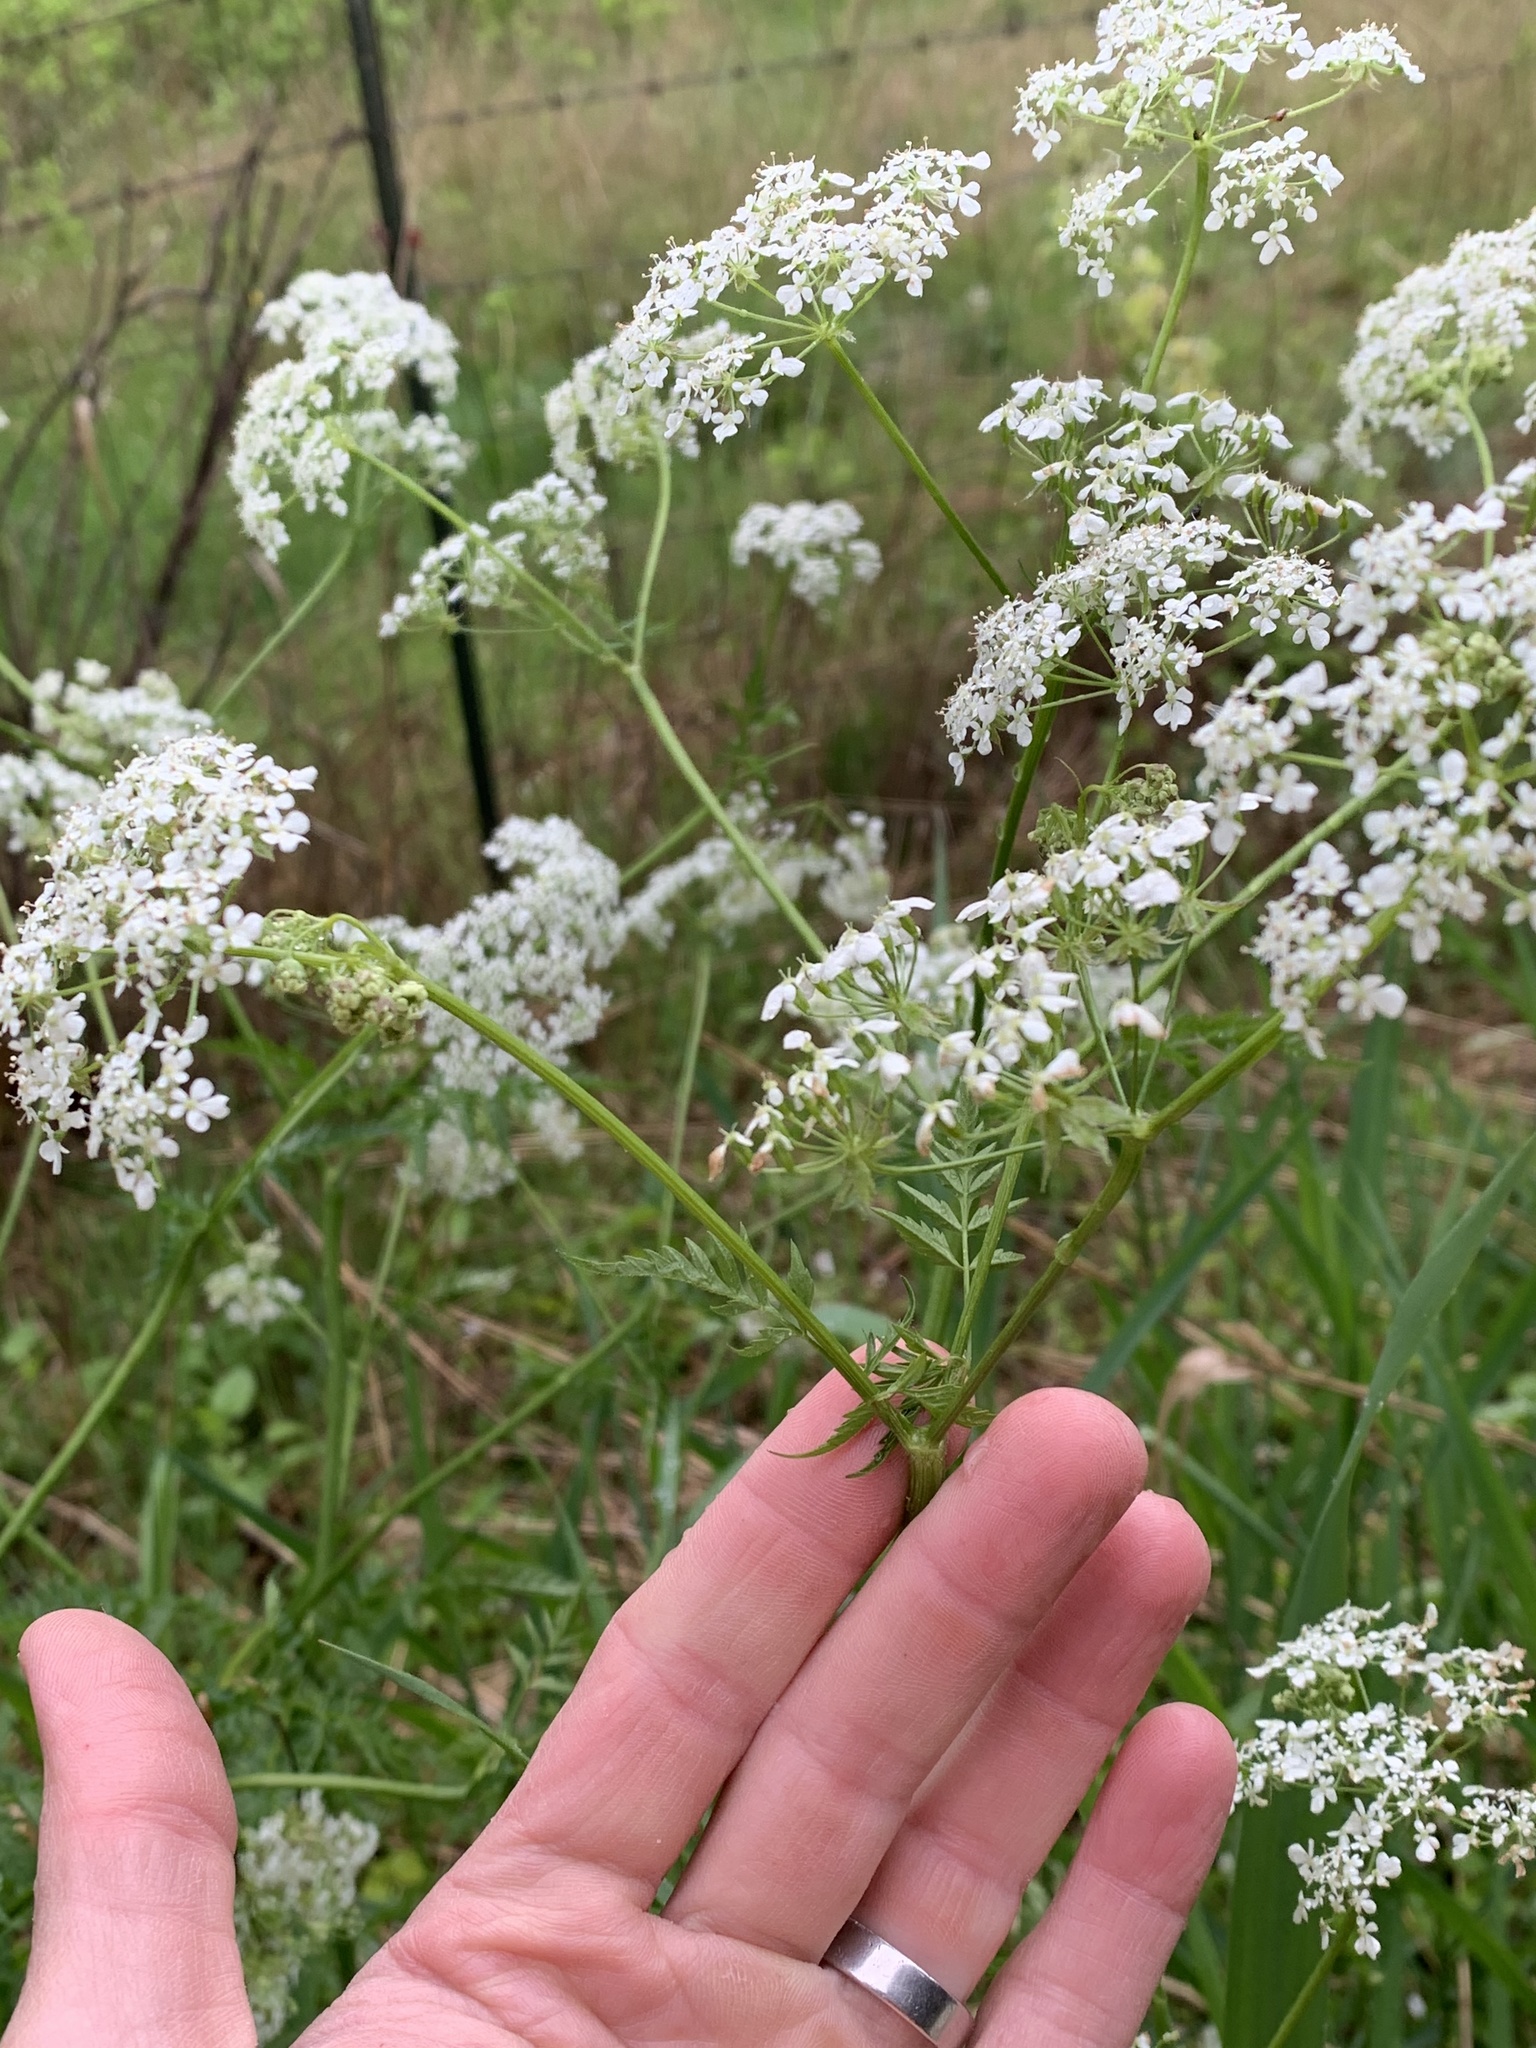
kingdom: Plantae
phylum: Tracheophyta
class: Magnoliopsida
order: Apiales
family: Apiaceae
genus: Anthriscus
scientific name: Anthriscus sylvestris
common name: Cow parsley
